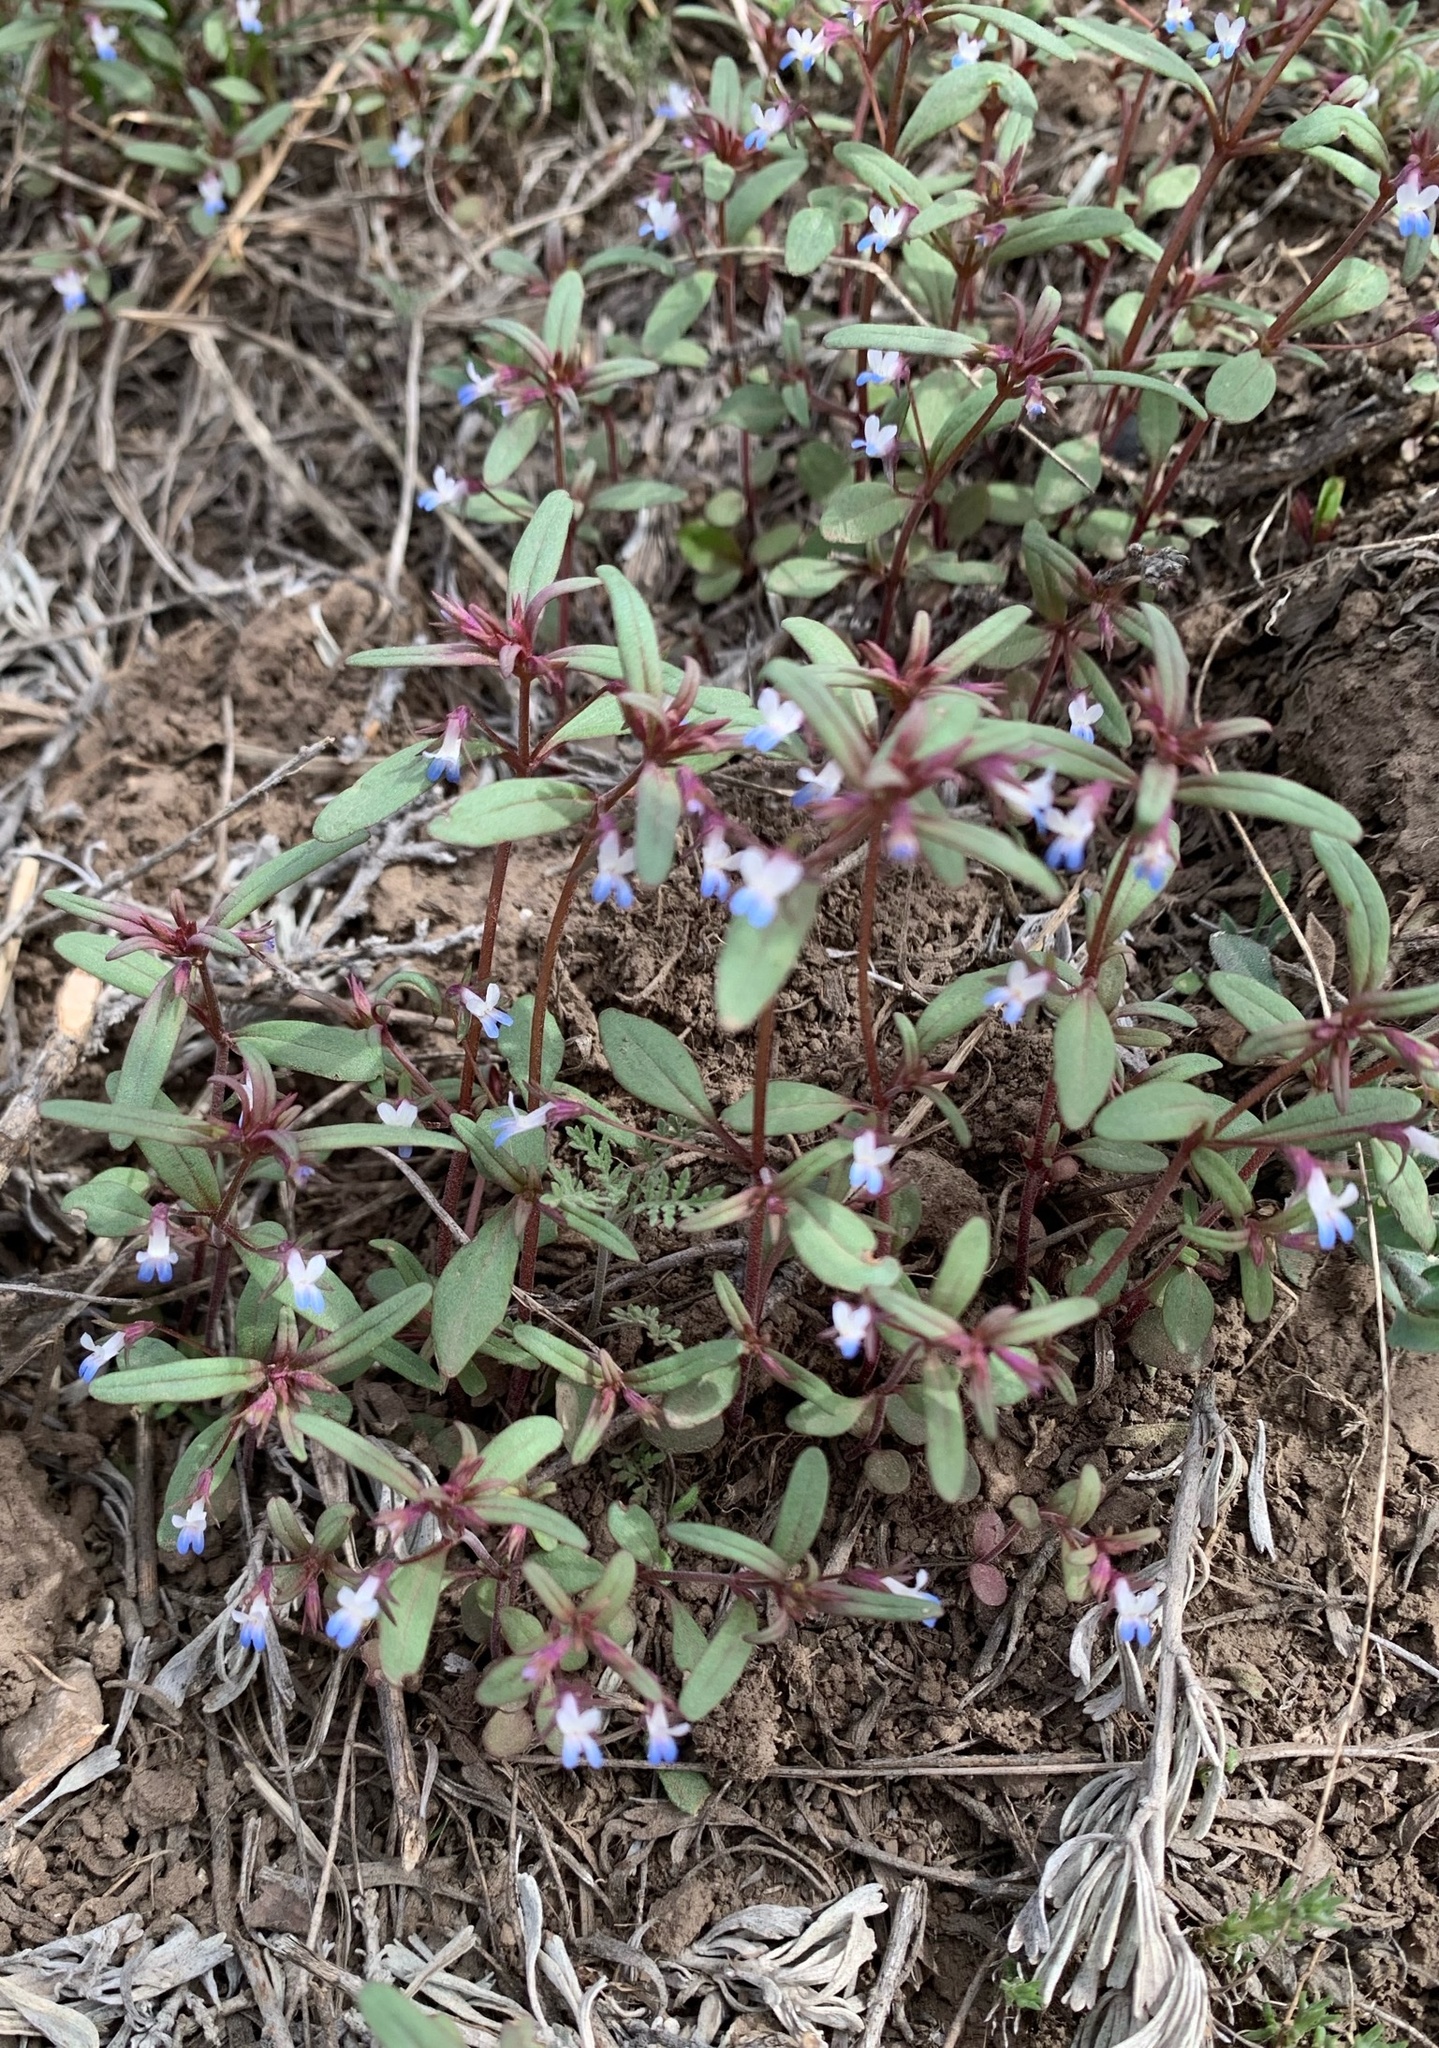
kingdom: Plantae
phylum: Tracheophyta
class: Magnoliopsida
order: Lamiales
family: Plantaginaceae
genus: Collinsia
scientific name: Collinsia parviflora
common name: Blue-lips
